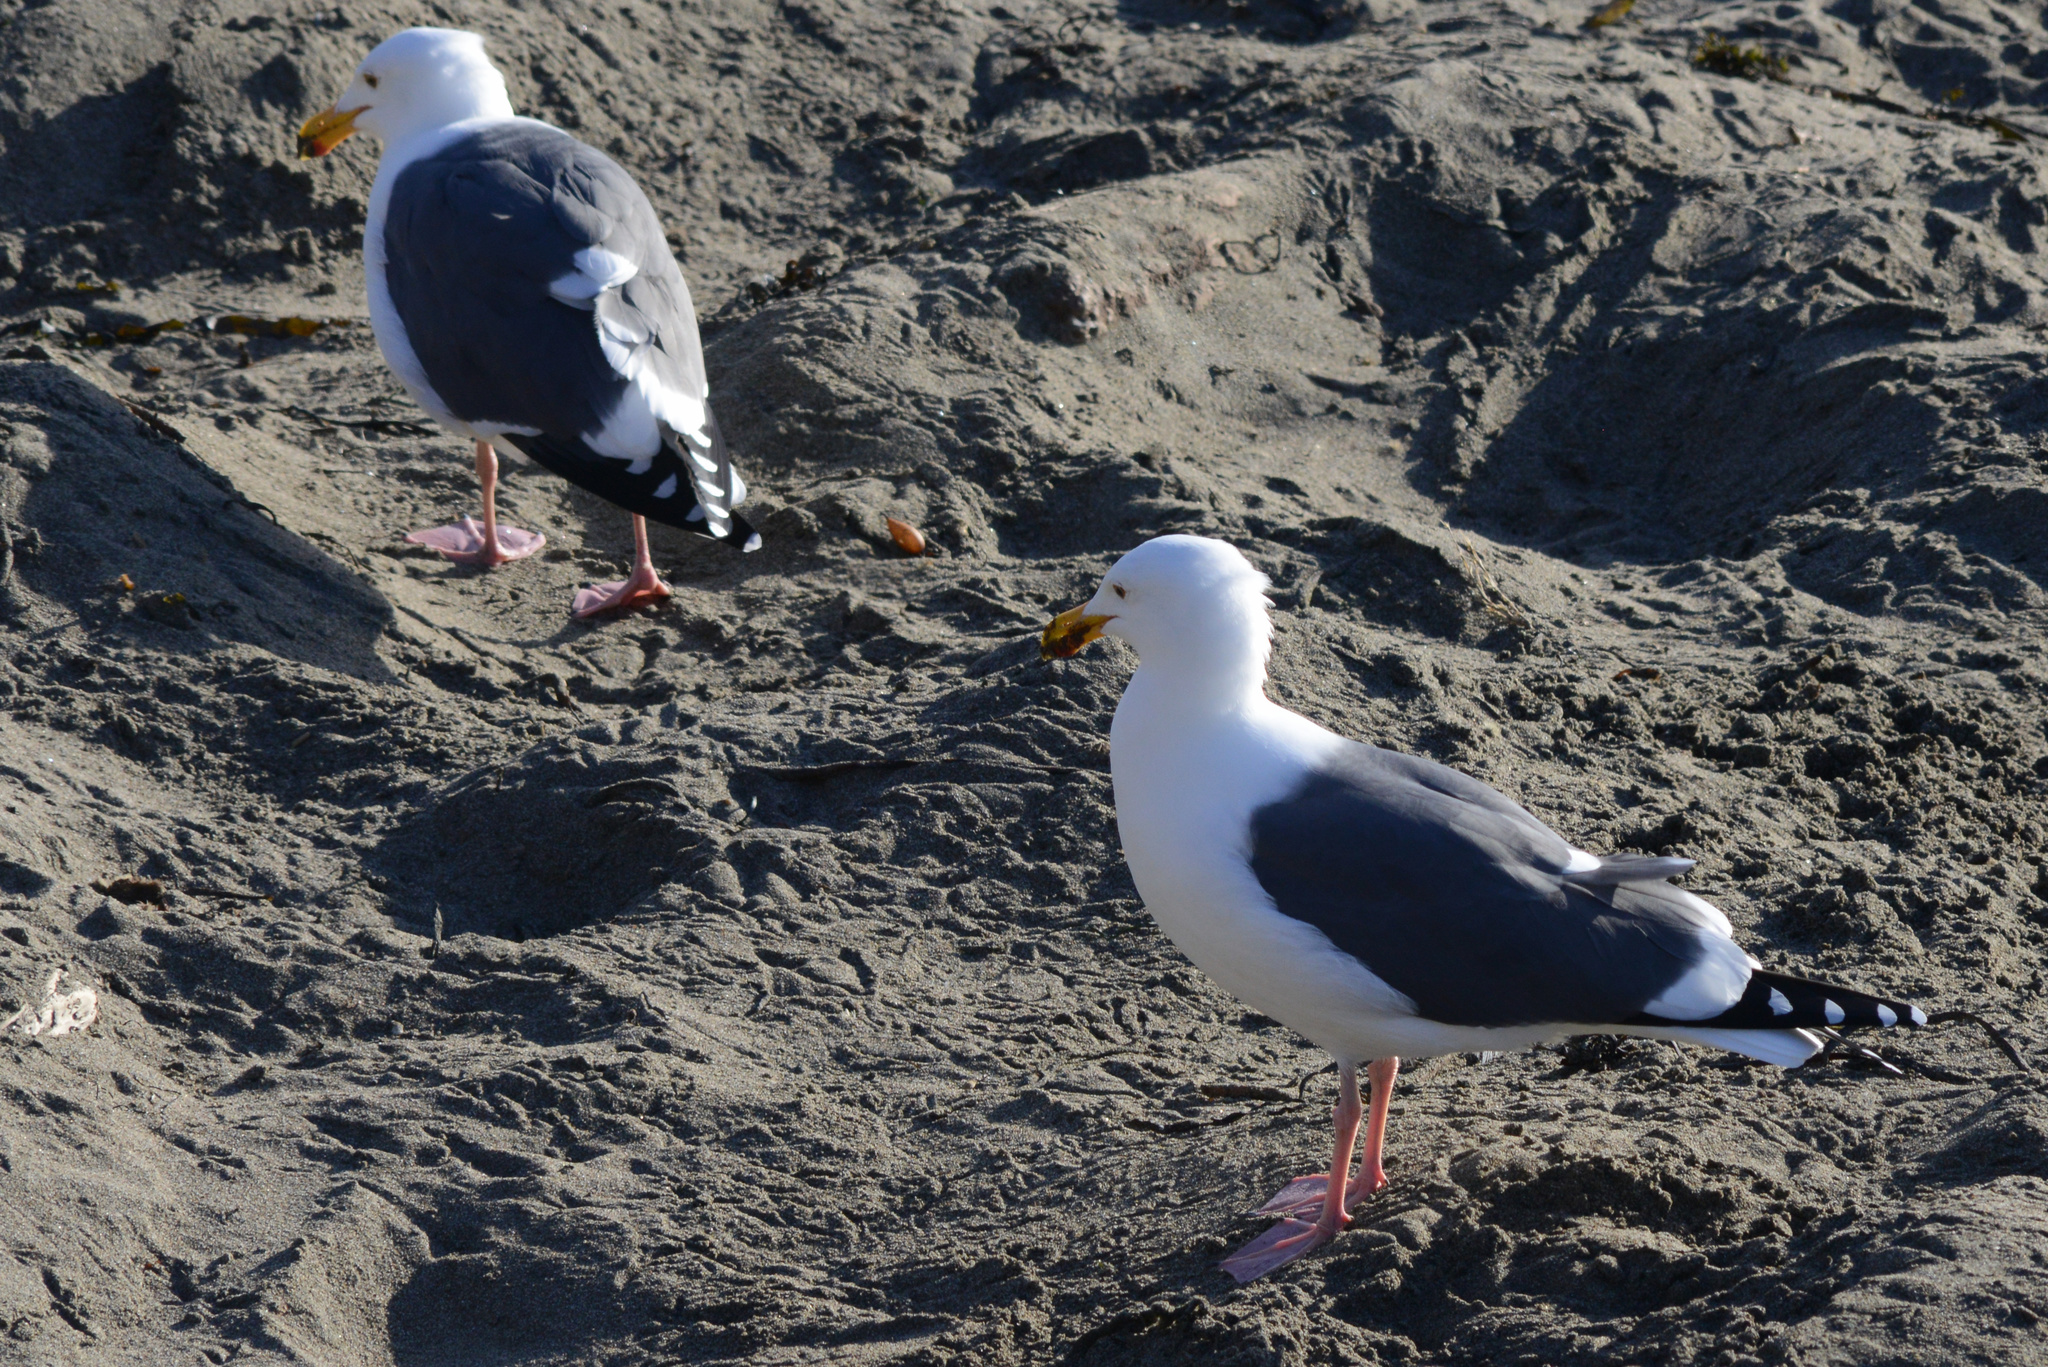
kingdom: Animalia
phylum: Chordata
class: Aves
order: Charadriiformes
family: Laridae
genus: Larus
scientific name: Larus occidentalis
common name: Western gull
